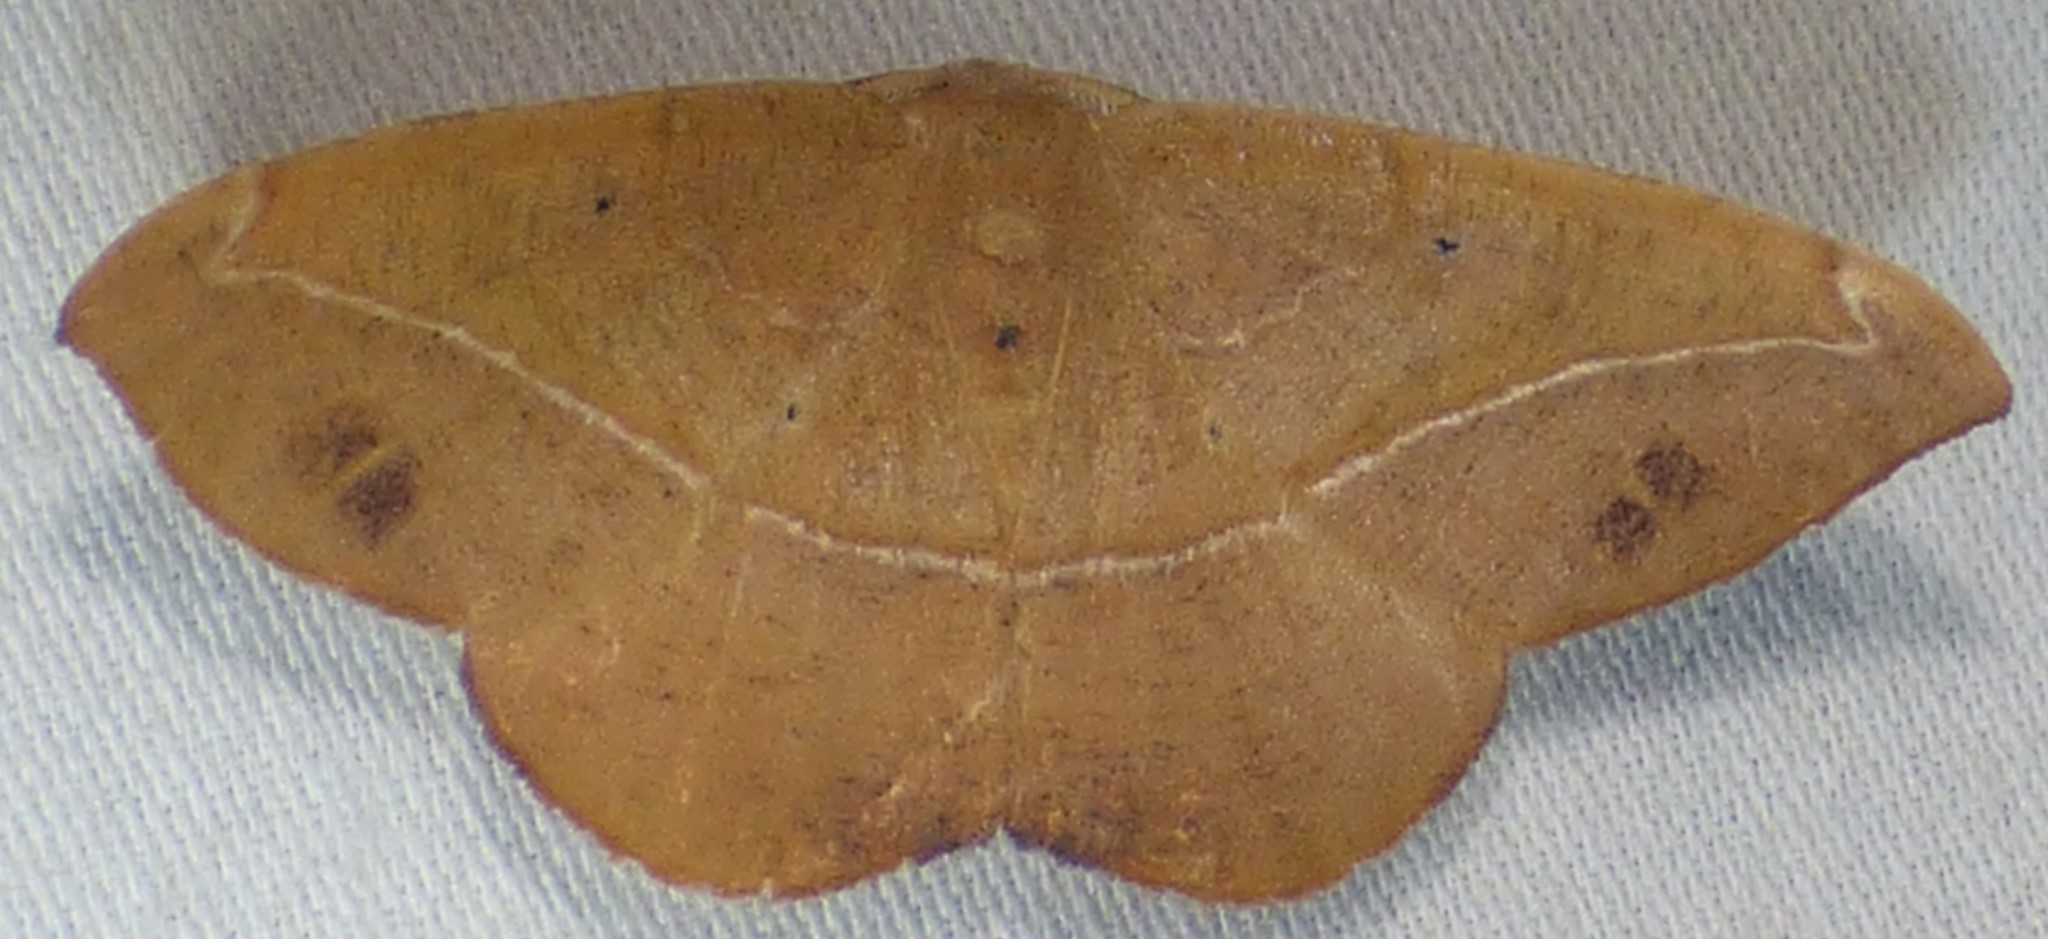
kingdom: Animalia
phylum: Arthropoda
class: Insecta
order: Lepidoptera
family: Geometridae
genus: Patalene
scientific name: Patalene olyzonaria
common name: Juniper geometer moth
